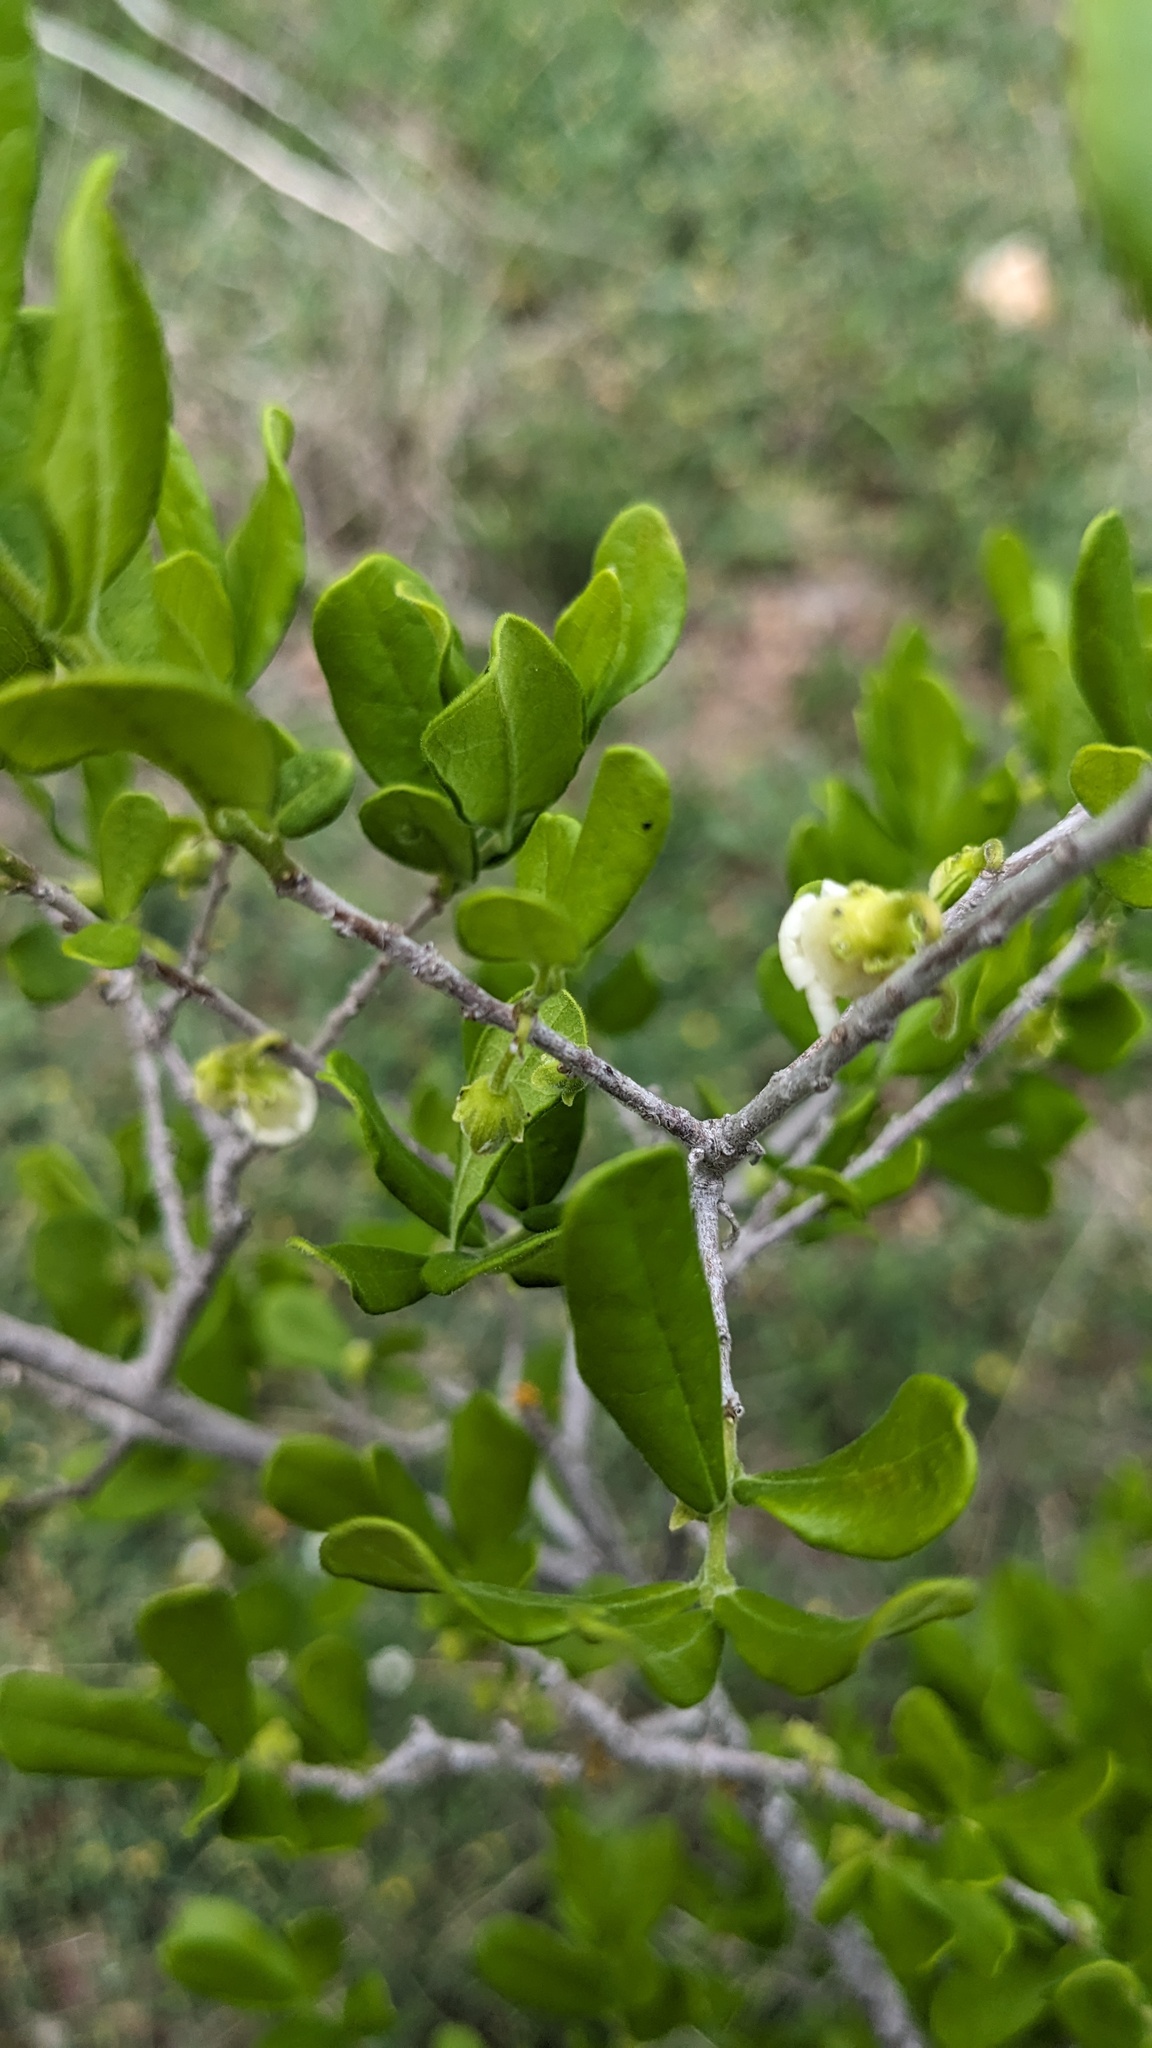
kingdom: Plantae
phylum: Tracheophyta
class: Magnoliopsida
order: Ericales
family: Ebenaceae
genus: Diospyros
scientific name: Diospyros texana
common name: Texas persimmon
